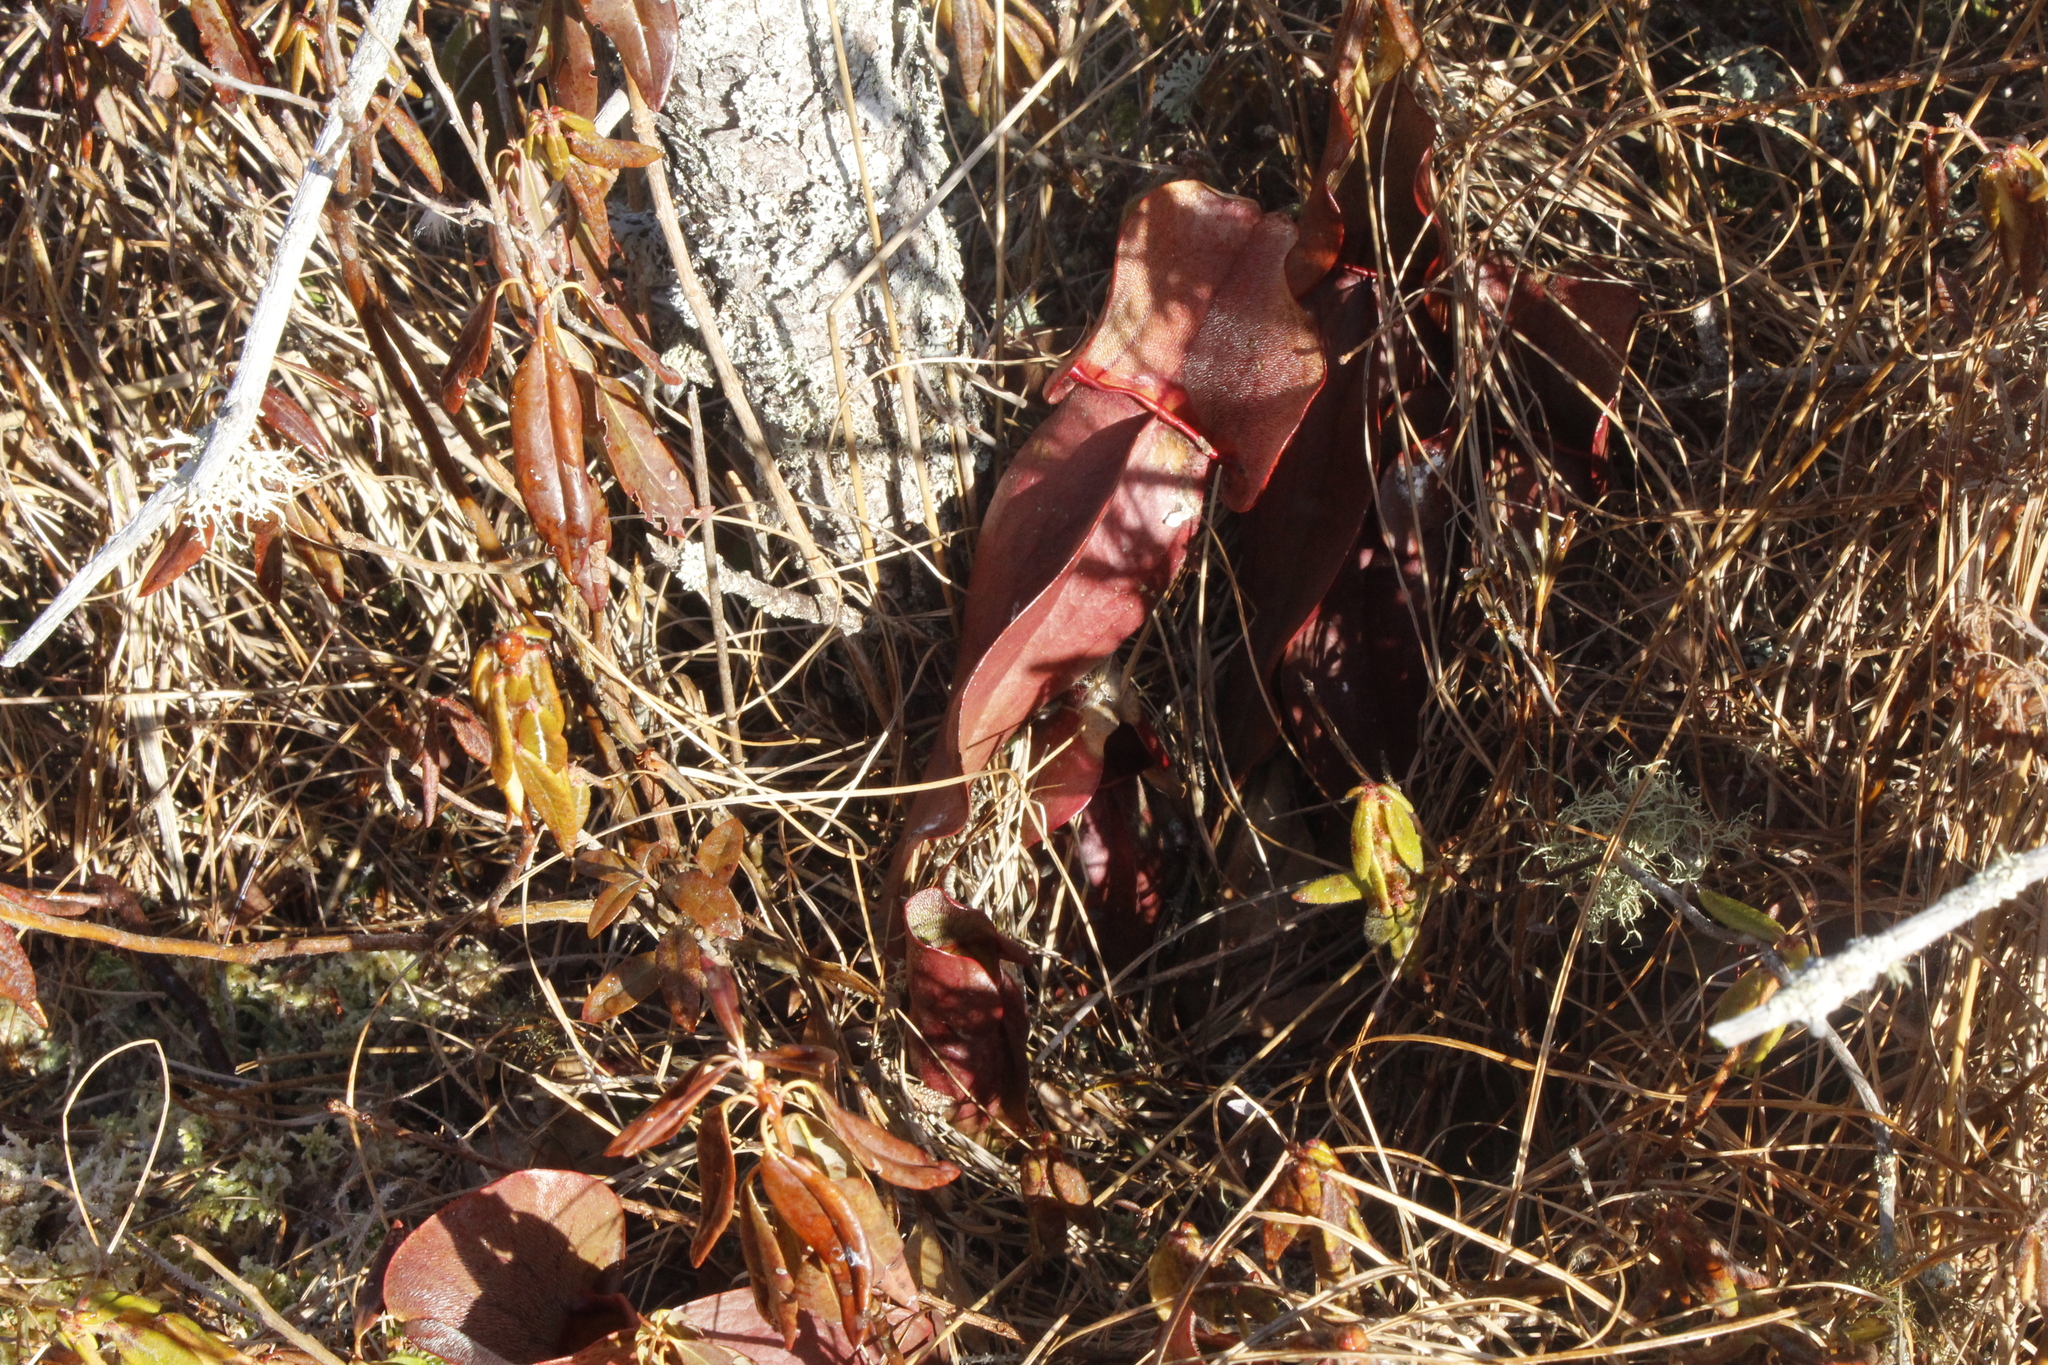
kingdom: Plantae
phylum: Tracheophyta
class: Magnoliopsida
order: Ericales
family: Sarraceniaceae
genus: Sarracenia
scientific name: Sarracenia purpurea
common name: Pitcherplant
